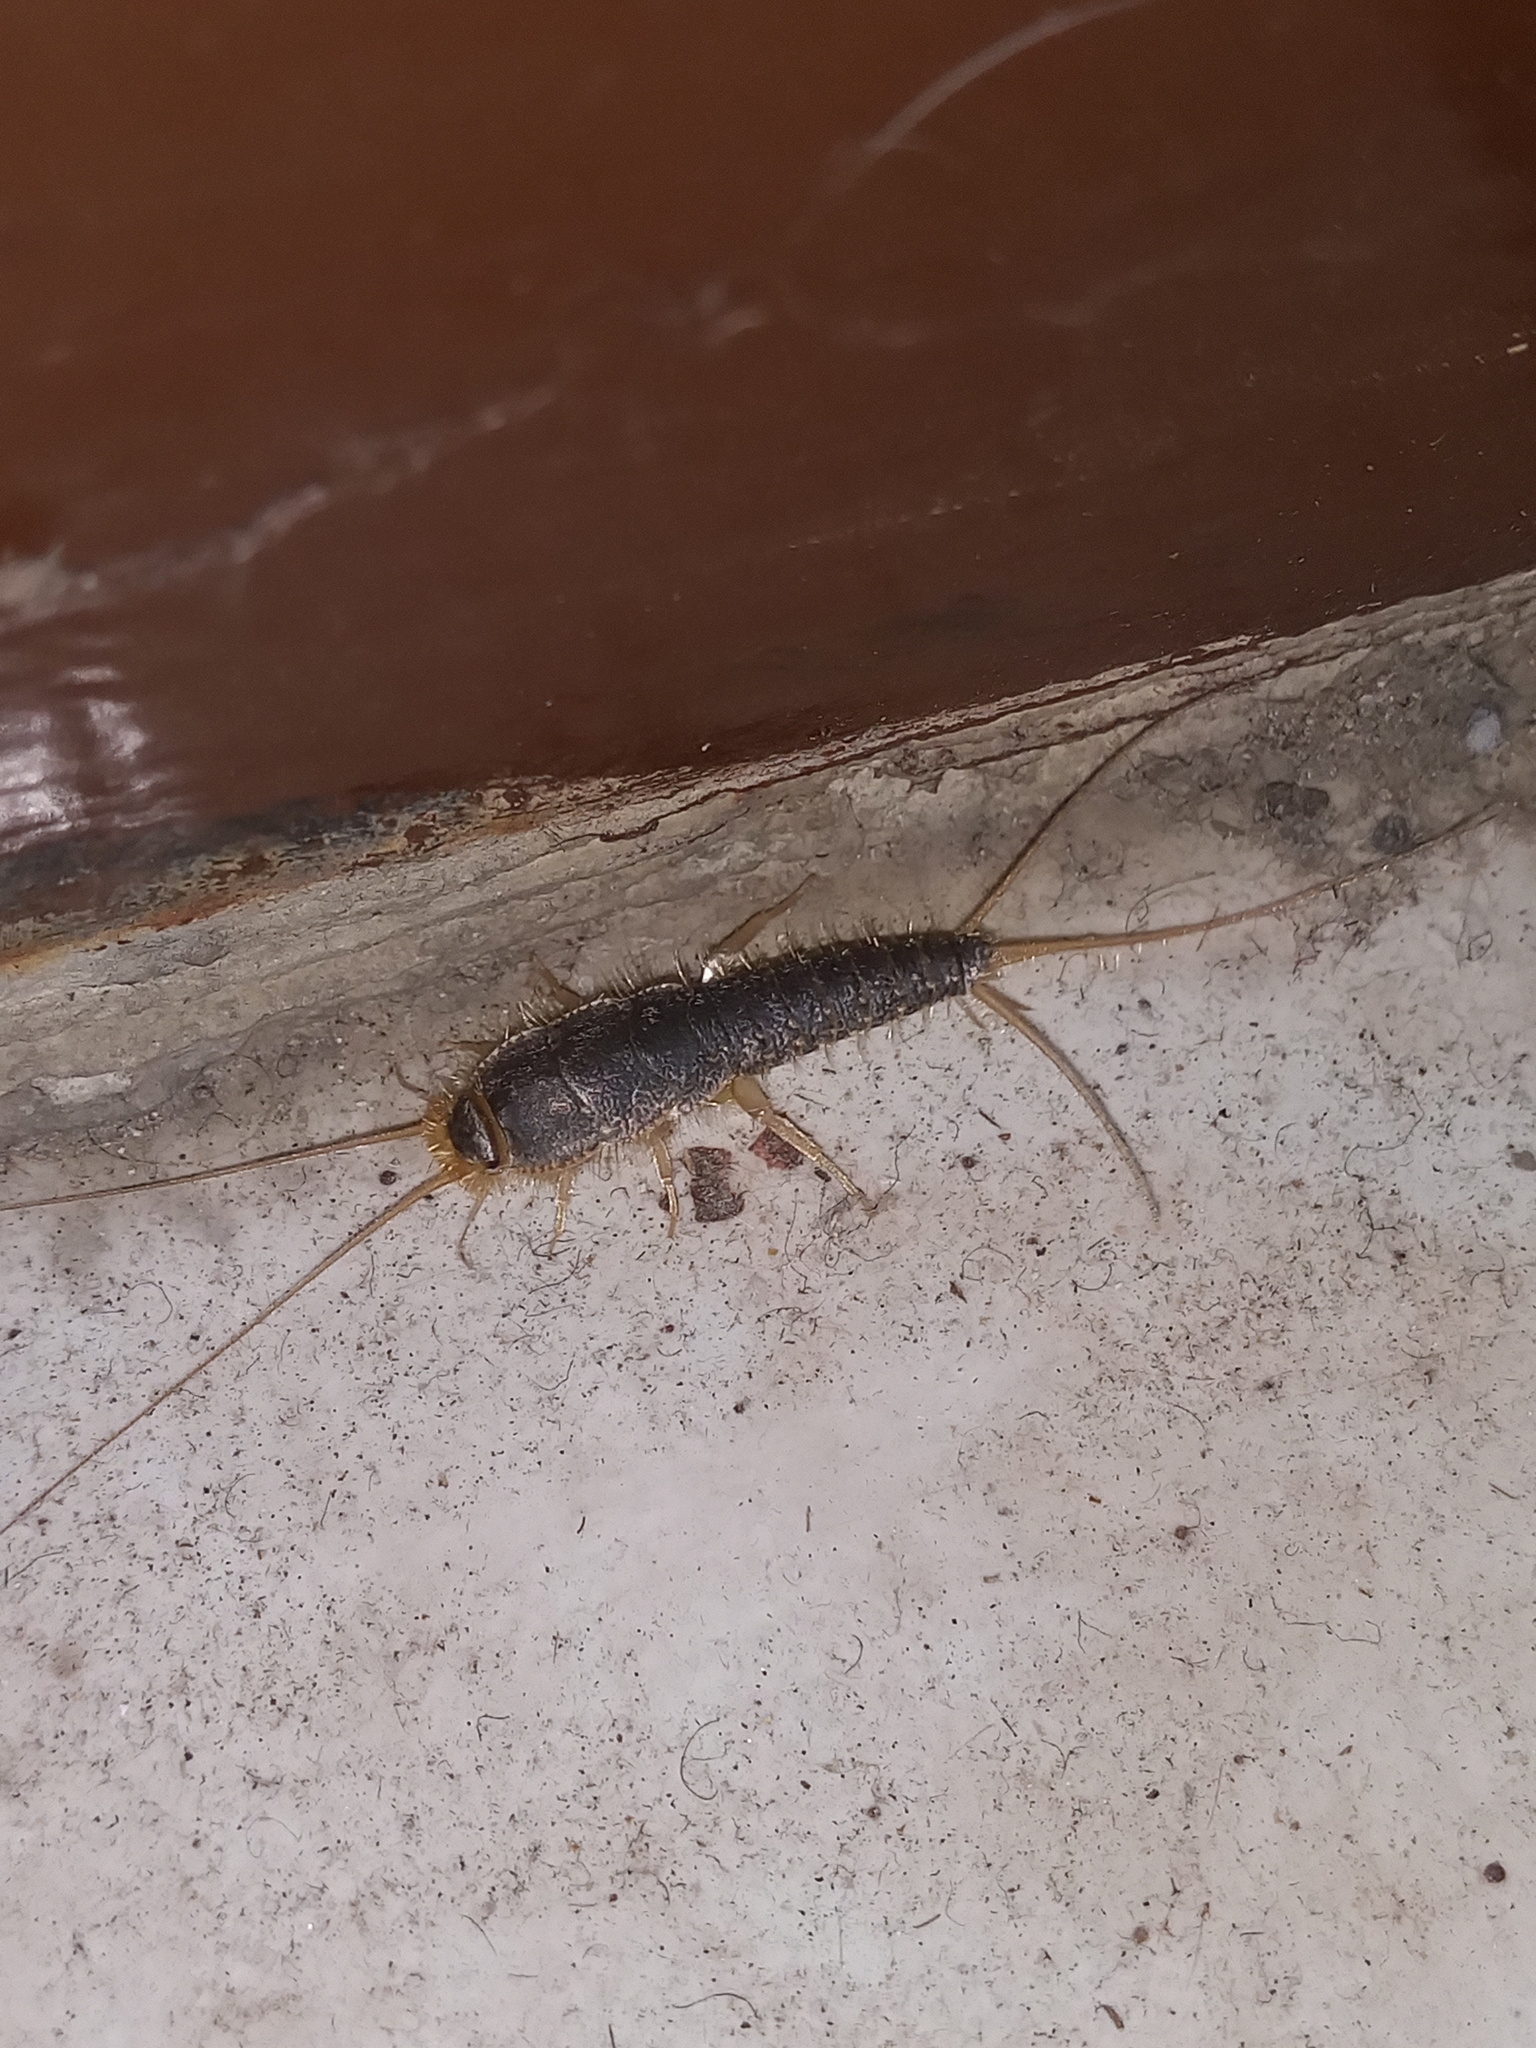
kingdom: Animalia
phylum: Arthropoda
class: Insecta
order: Zygentoma
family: Lepismatidae
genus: Ctenolepisma
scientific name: Ctenolepisma longicaudatum
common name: Silverfish
